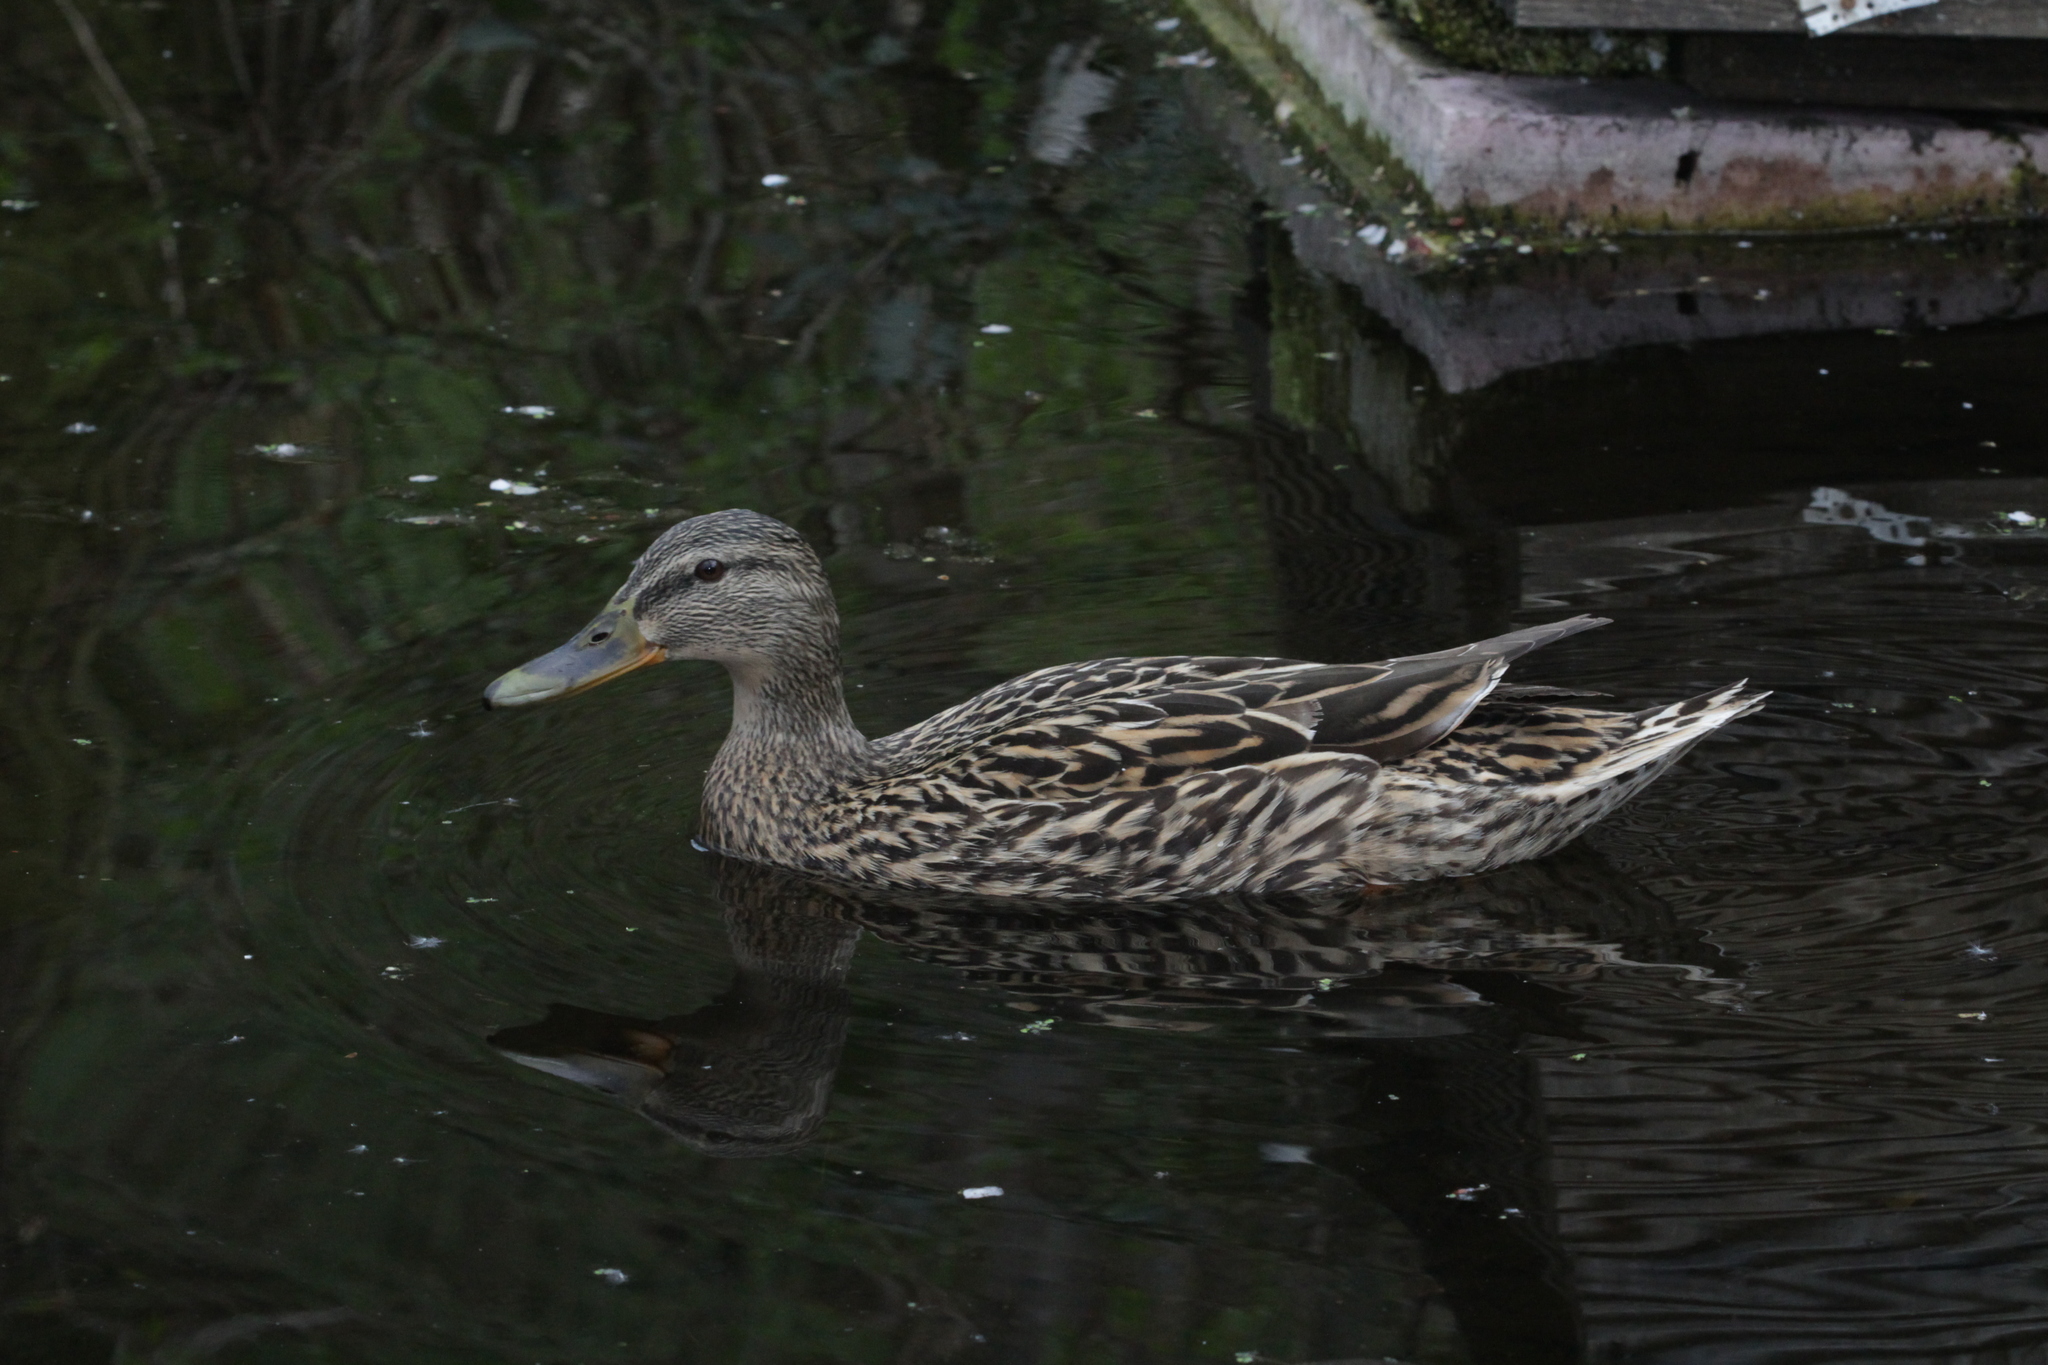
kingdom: Animalia
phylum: Chordata
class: Aves
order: Anseriformes
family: Anatidae
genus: Anas
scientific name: Anas platyrhynchos
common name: Mallard
